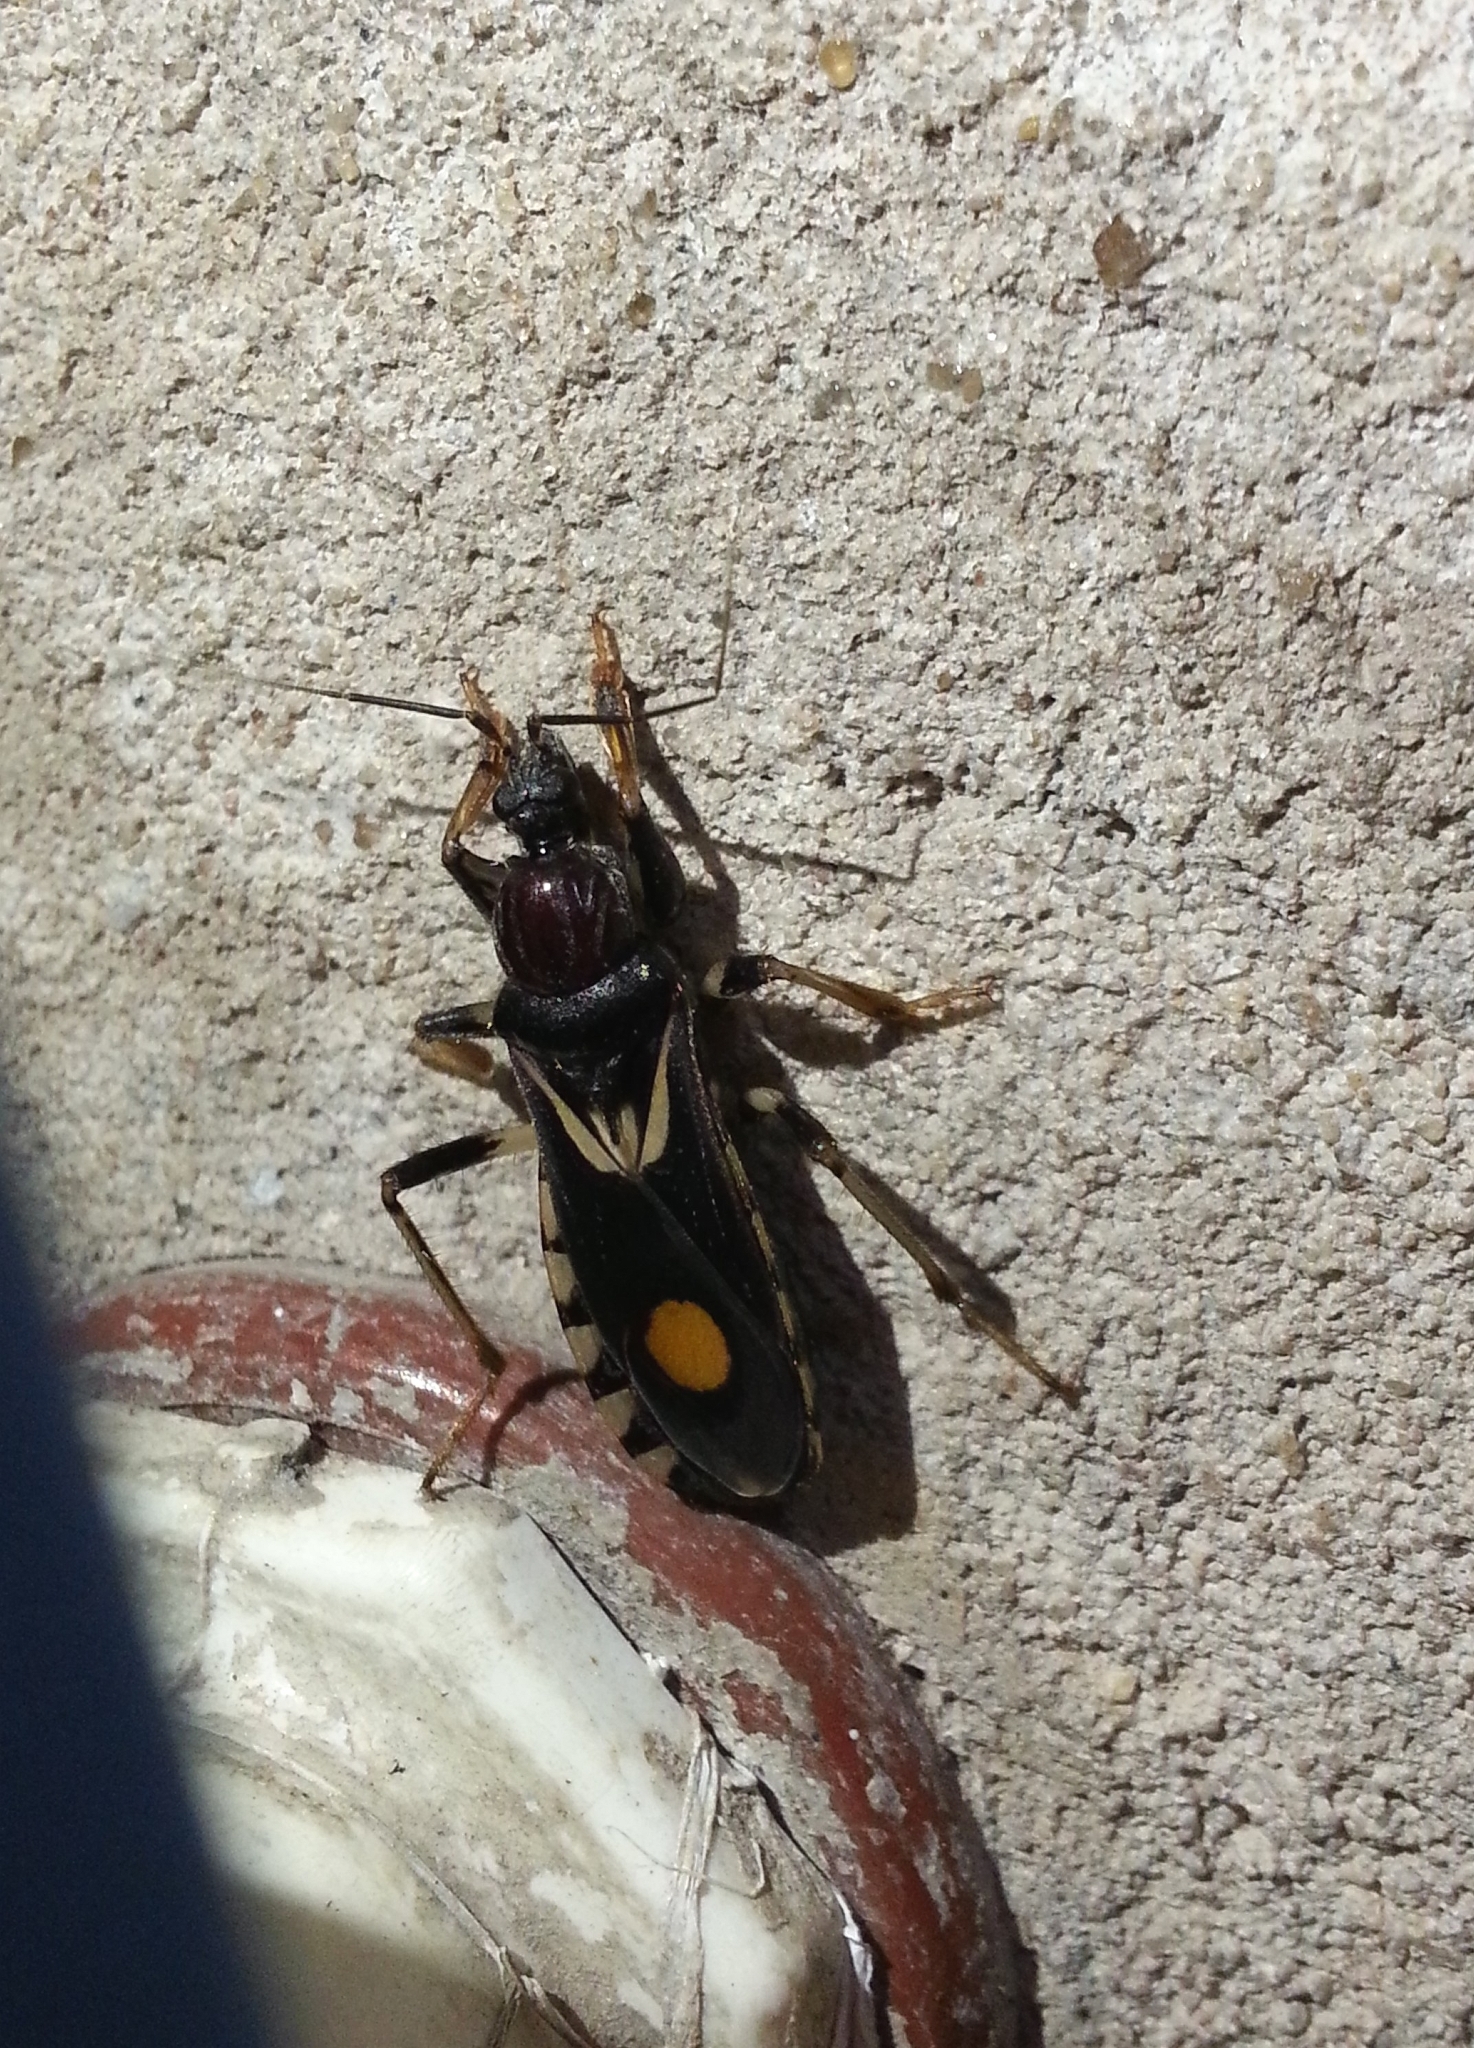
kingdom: Animalia
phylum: Arthropoda
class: Insecta
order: Hemiptera
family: Reduviidae
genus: Rasahus
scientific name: Rasahus hamatus
